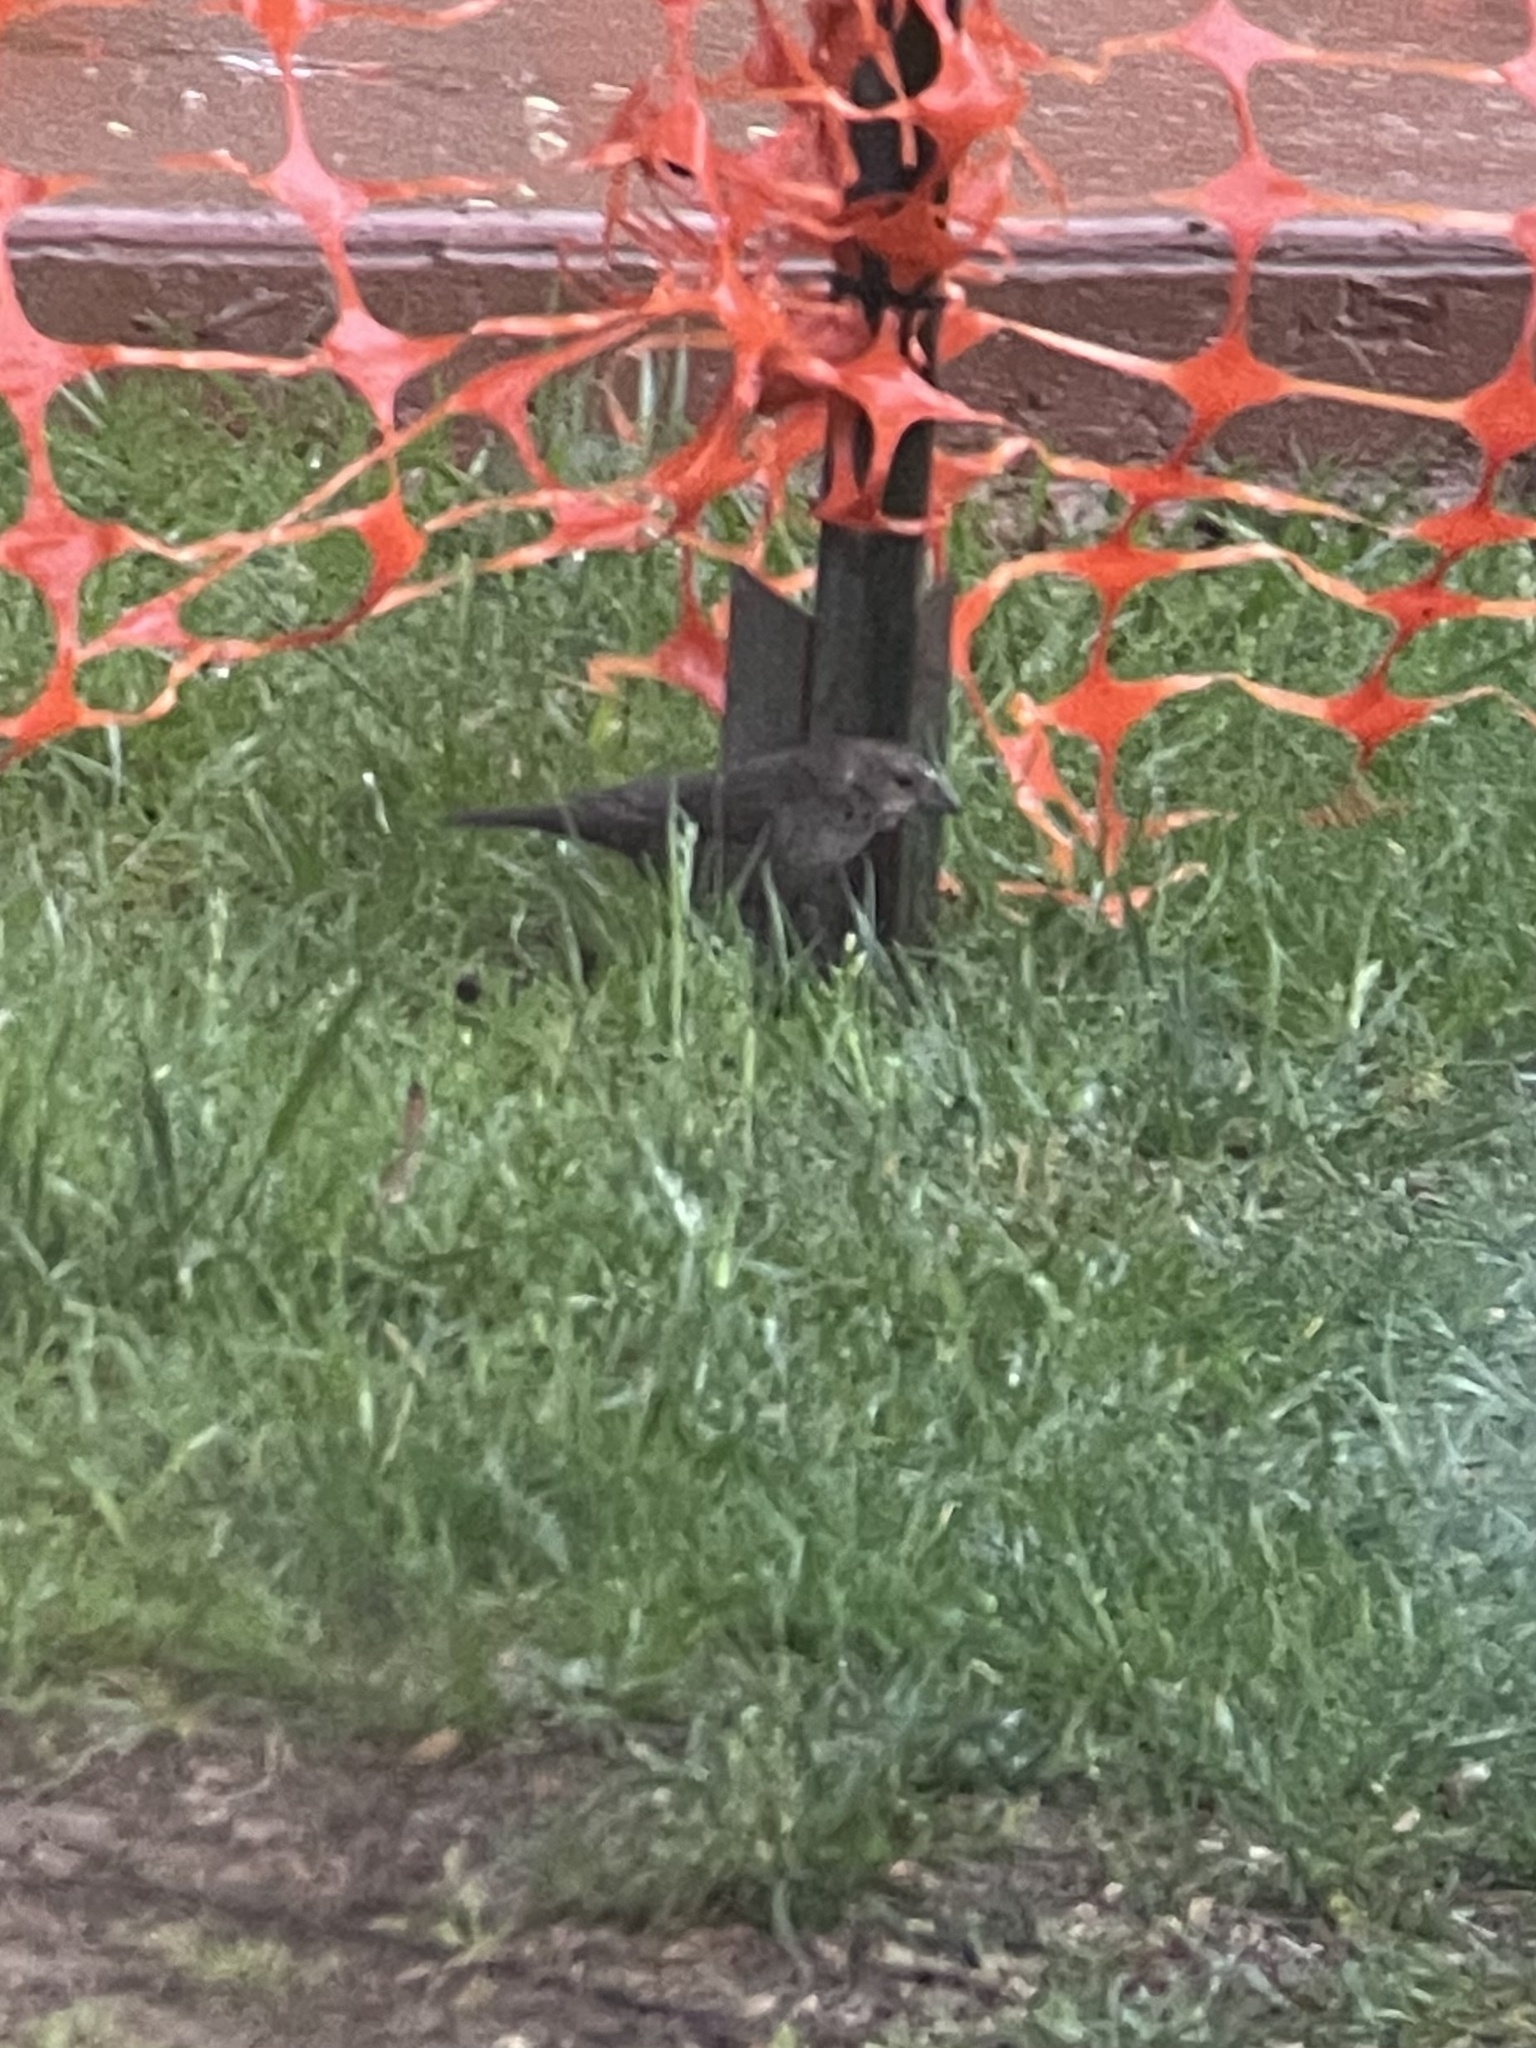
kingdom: Animalia
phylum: Chordata
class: Aves
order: Passeriformes
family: Icteridae
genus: Molothrus
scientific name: Molothrus ater
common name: Brown-headed cowbird
